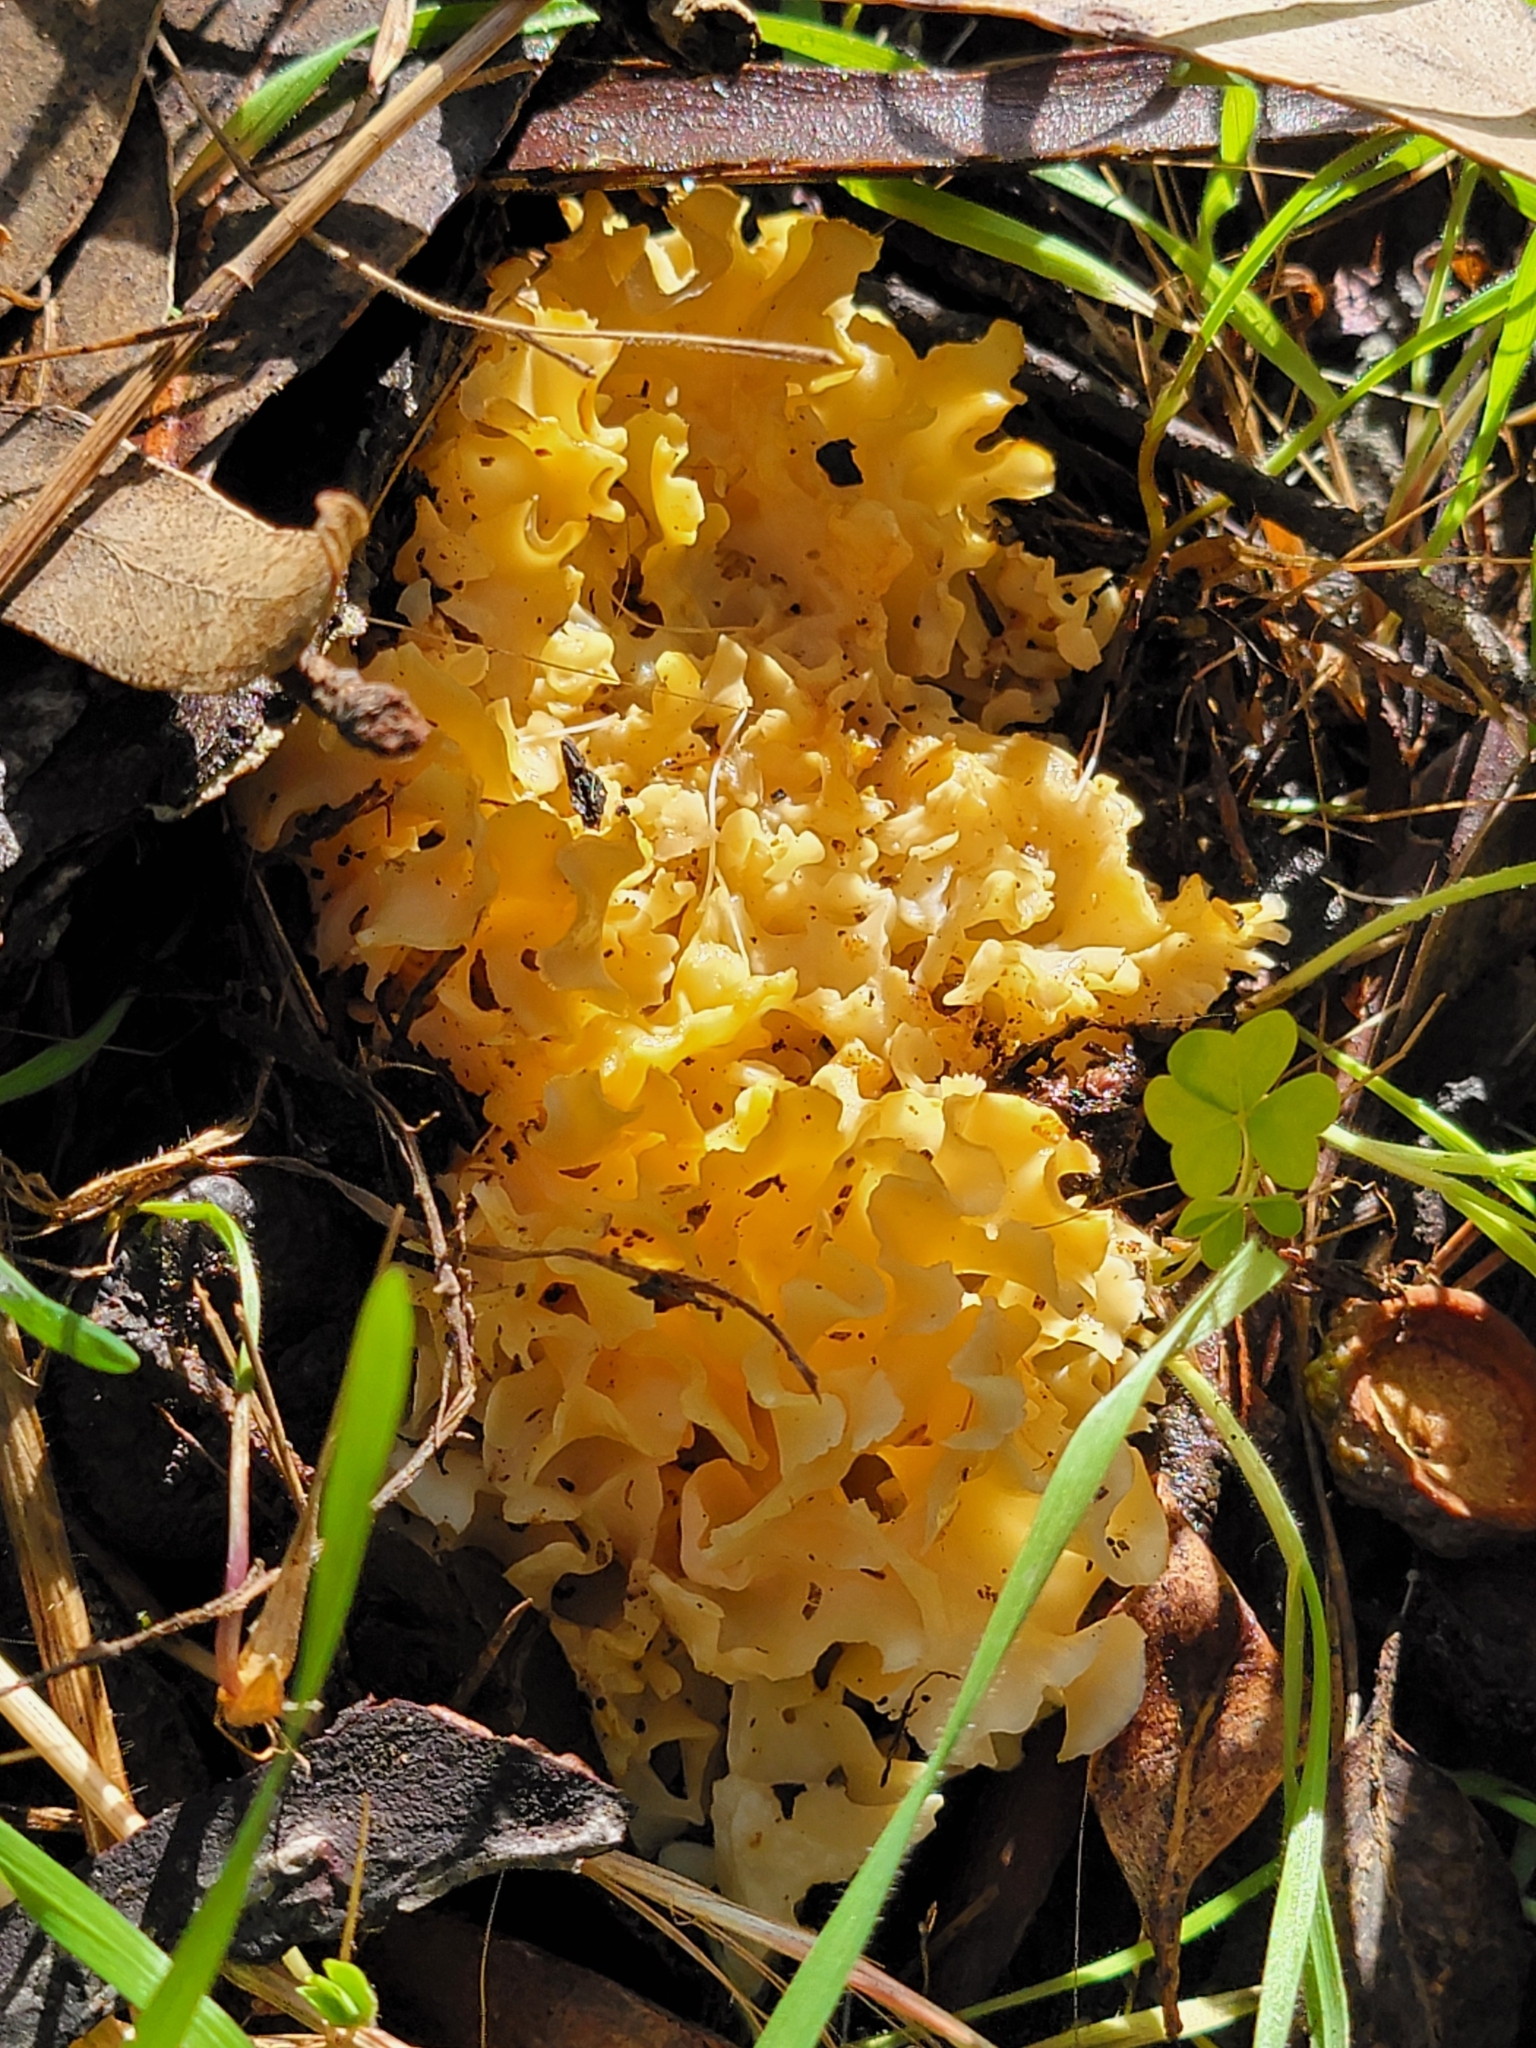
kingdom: Fungi
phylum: Basidiomycota
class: Agaricomycetes
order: Polyporales
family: Sparassidaceae
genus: Sparassis
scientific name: Sparassis radicata
